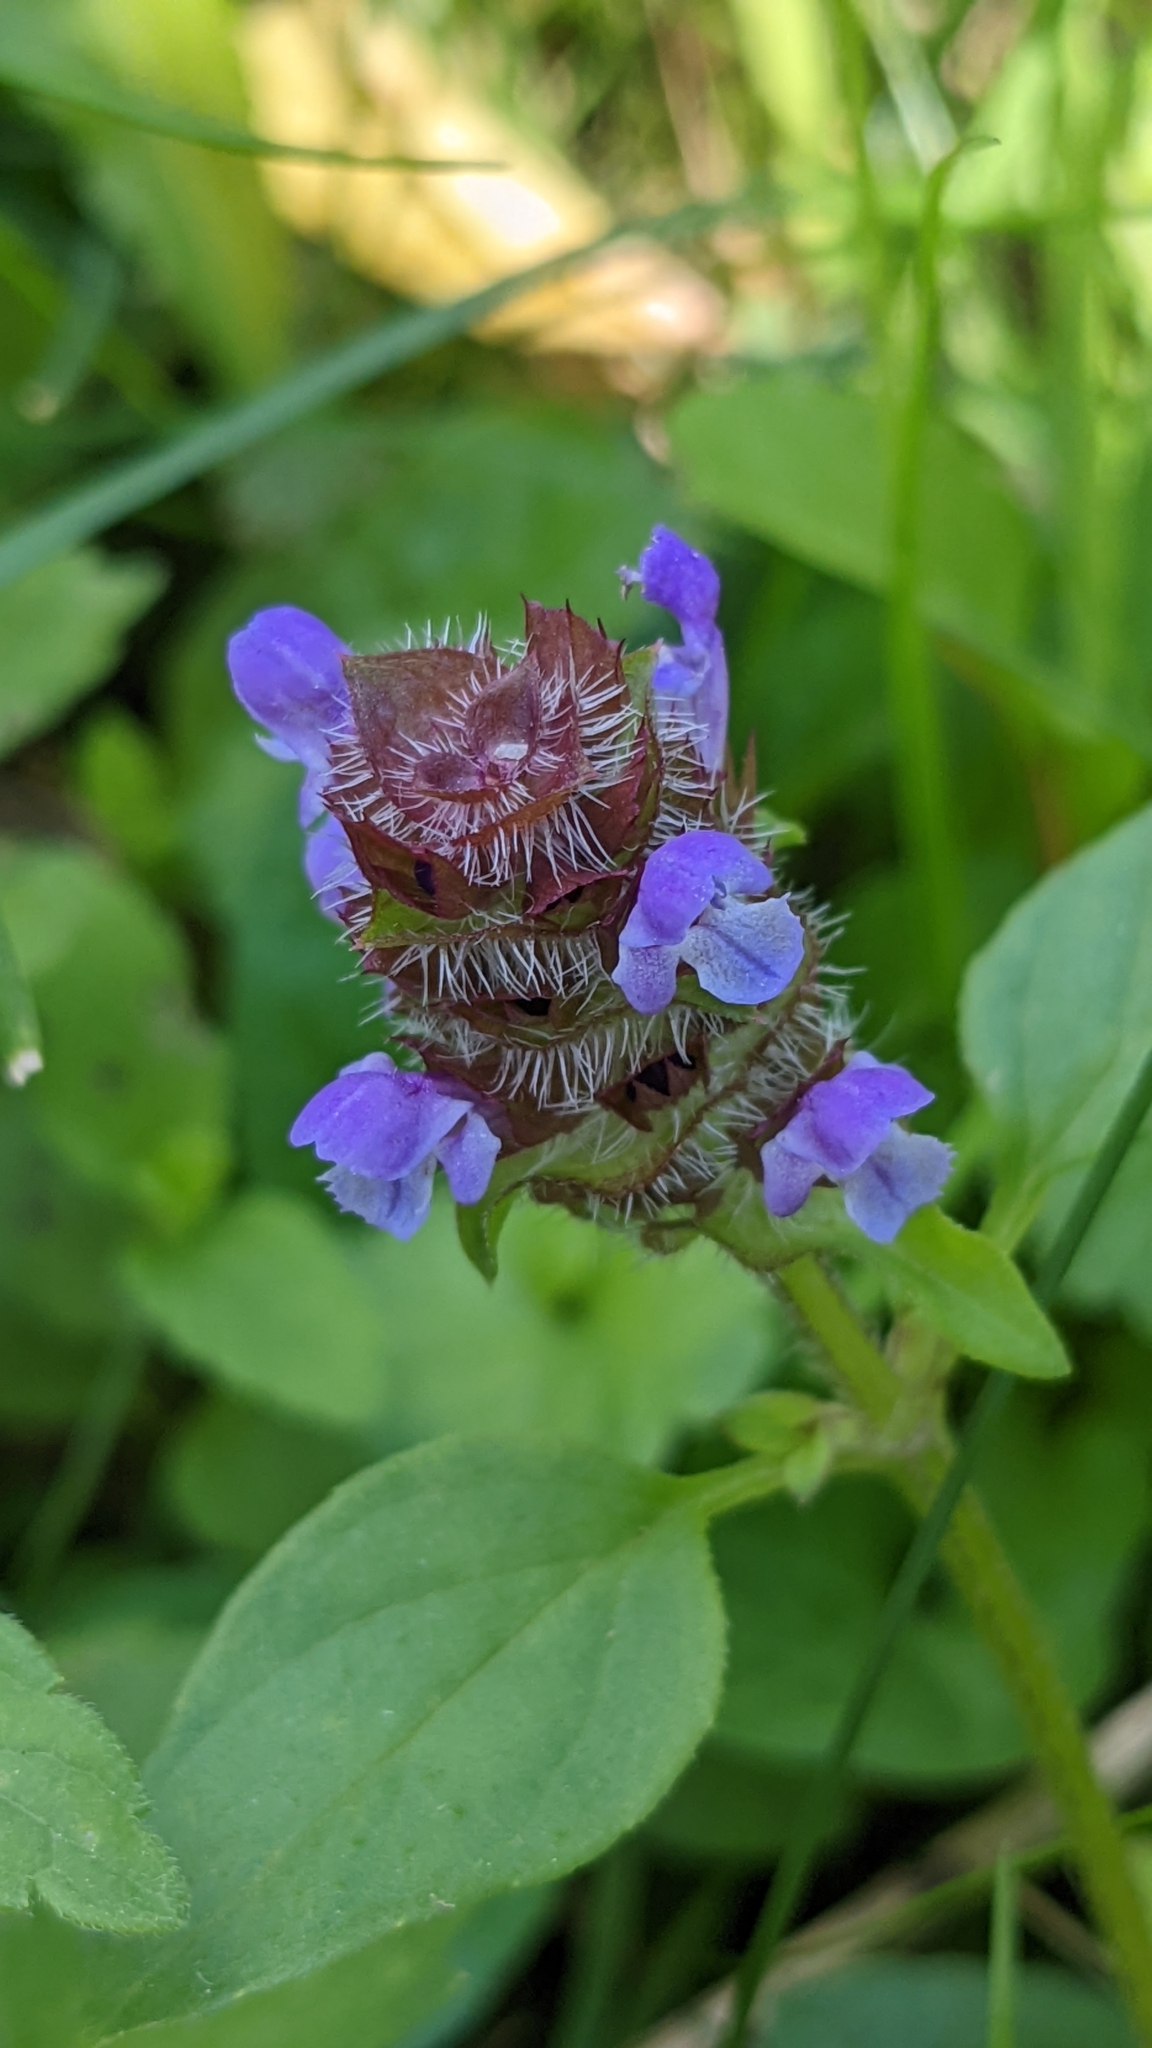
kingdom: Plantae
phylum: Tracheophyta
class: Magnoliopsida
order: Lamiales
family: Lamiaceae
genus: Prunella
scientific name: Prunella vulgaris
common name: Heal-all
